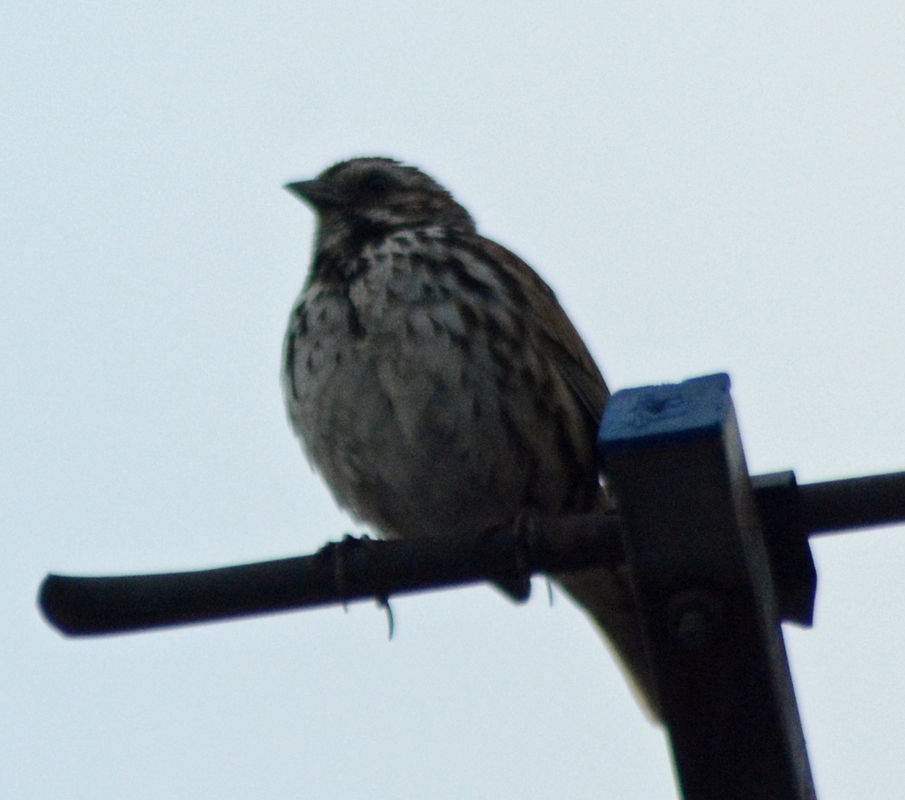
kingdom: Animalia
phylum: Chordata
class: Aves
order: Passeriformes
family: Passerellidae
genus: Melospiza
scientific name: Melospiza melodia
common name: Song sparrow
